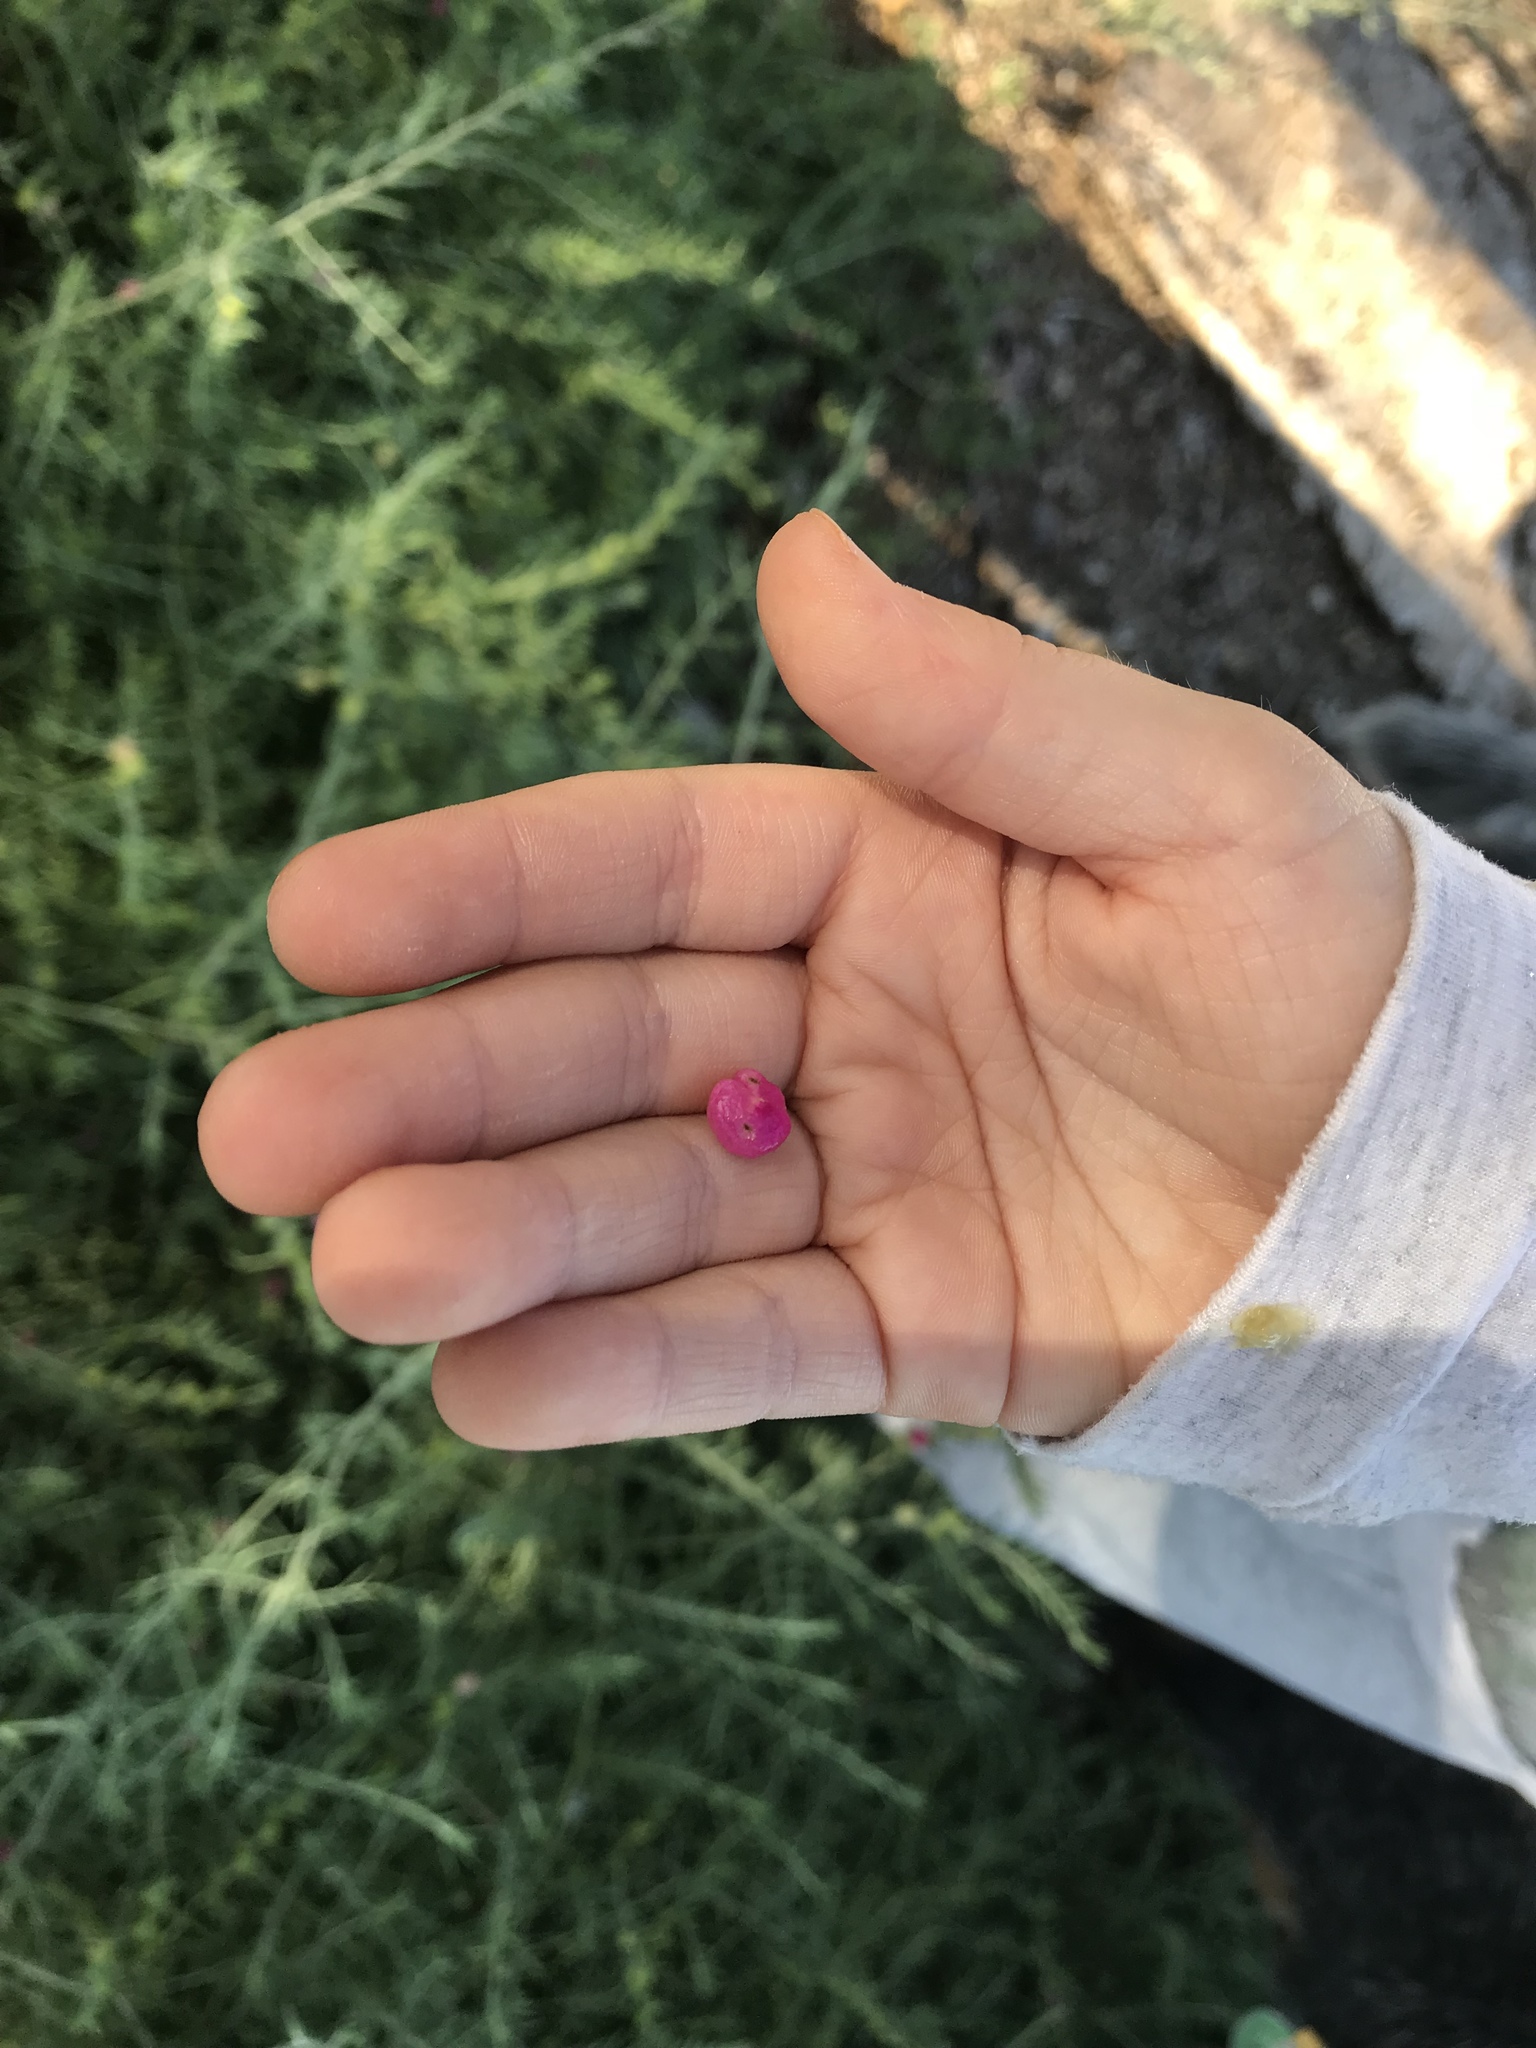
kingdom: Plantae
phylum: Tracheophyta
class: Magnoliopsida
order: Caryophyllales
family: Amaranthaceae
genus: Enchylaena
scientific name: Enchylaena tomentosa
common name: Ruby saltbush
